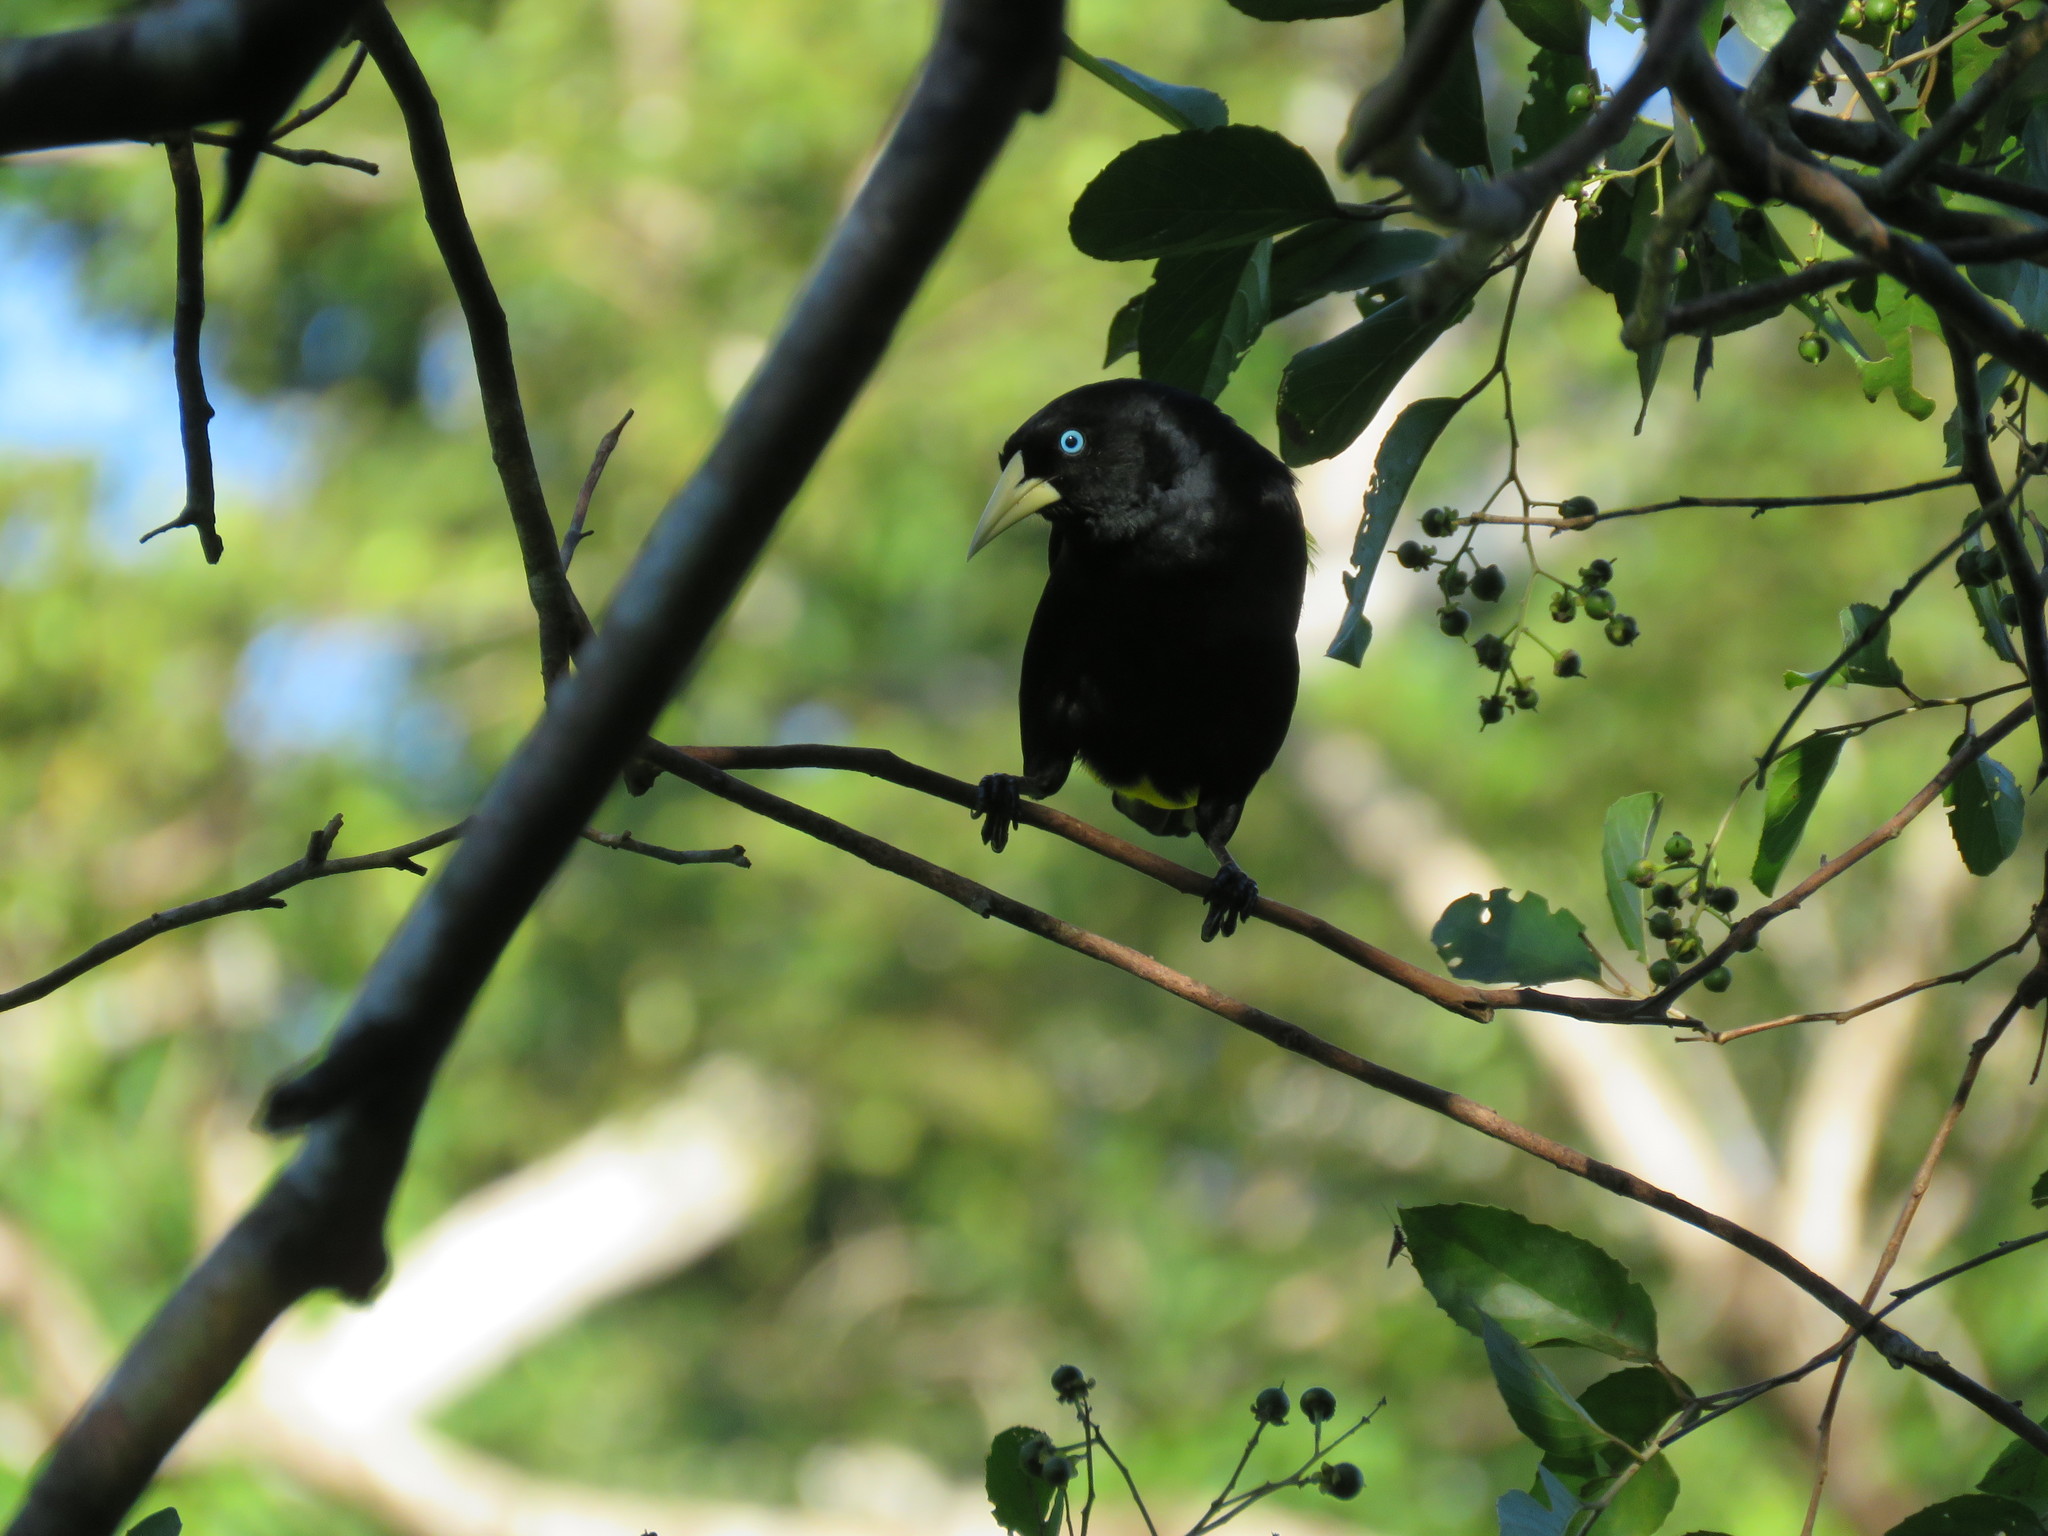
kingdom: Animalia
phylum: Chordata
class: Aves
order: Passeriformes
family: Icteridae
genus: Cacicus
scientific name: Cacicus cela
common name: Yellow-rumped cacique
